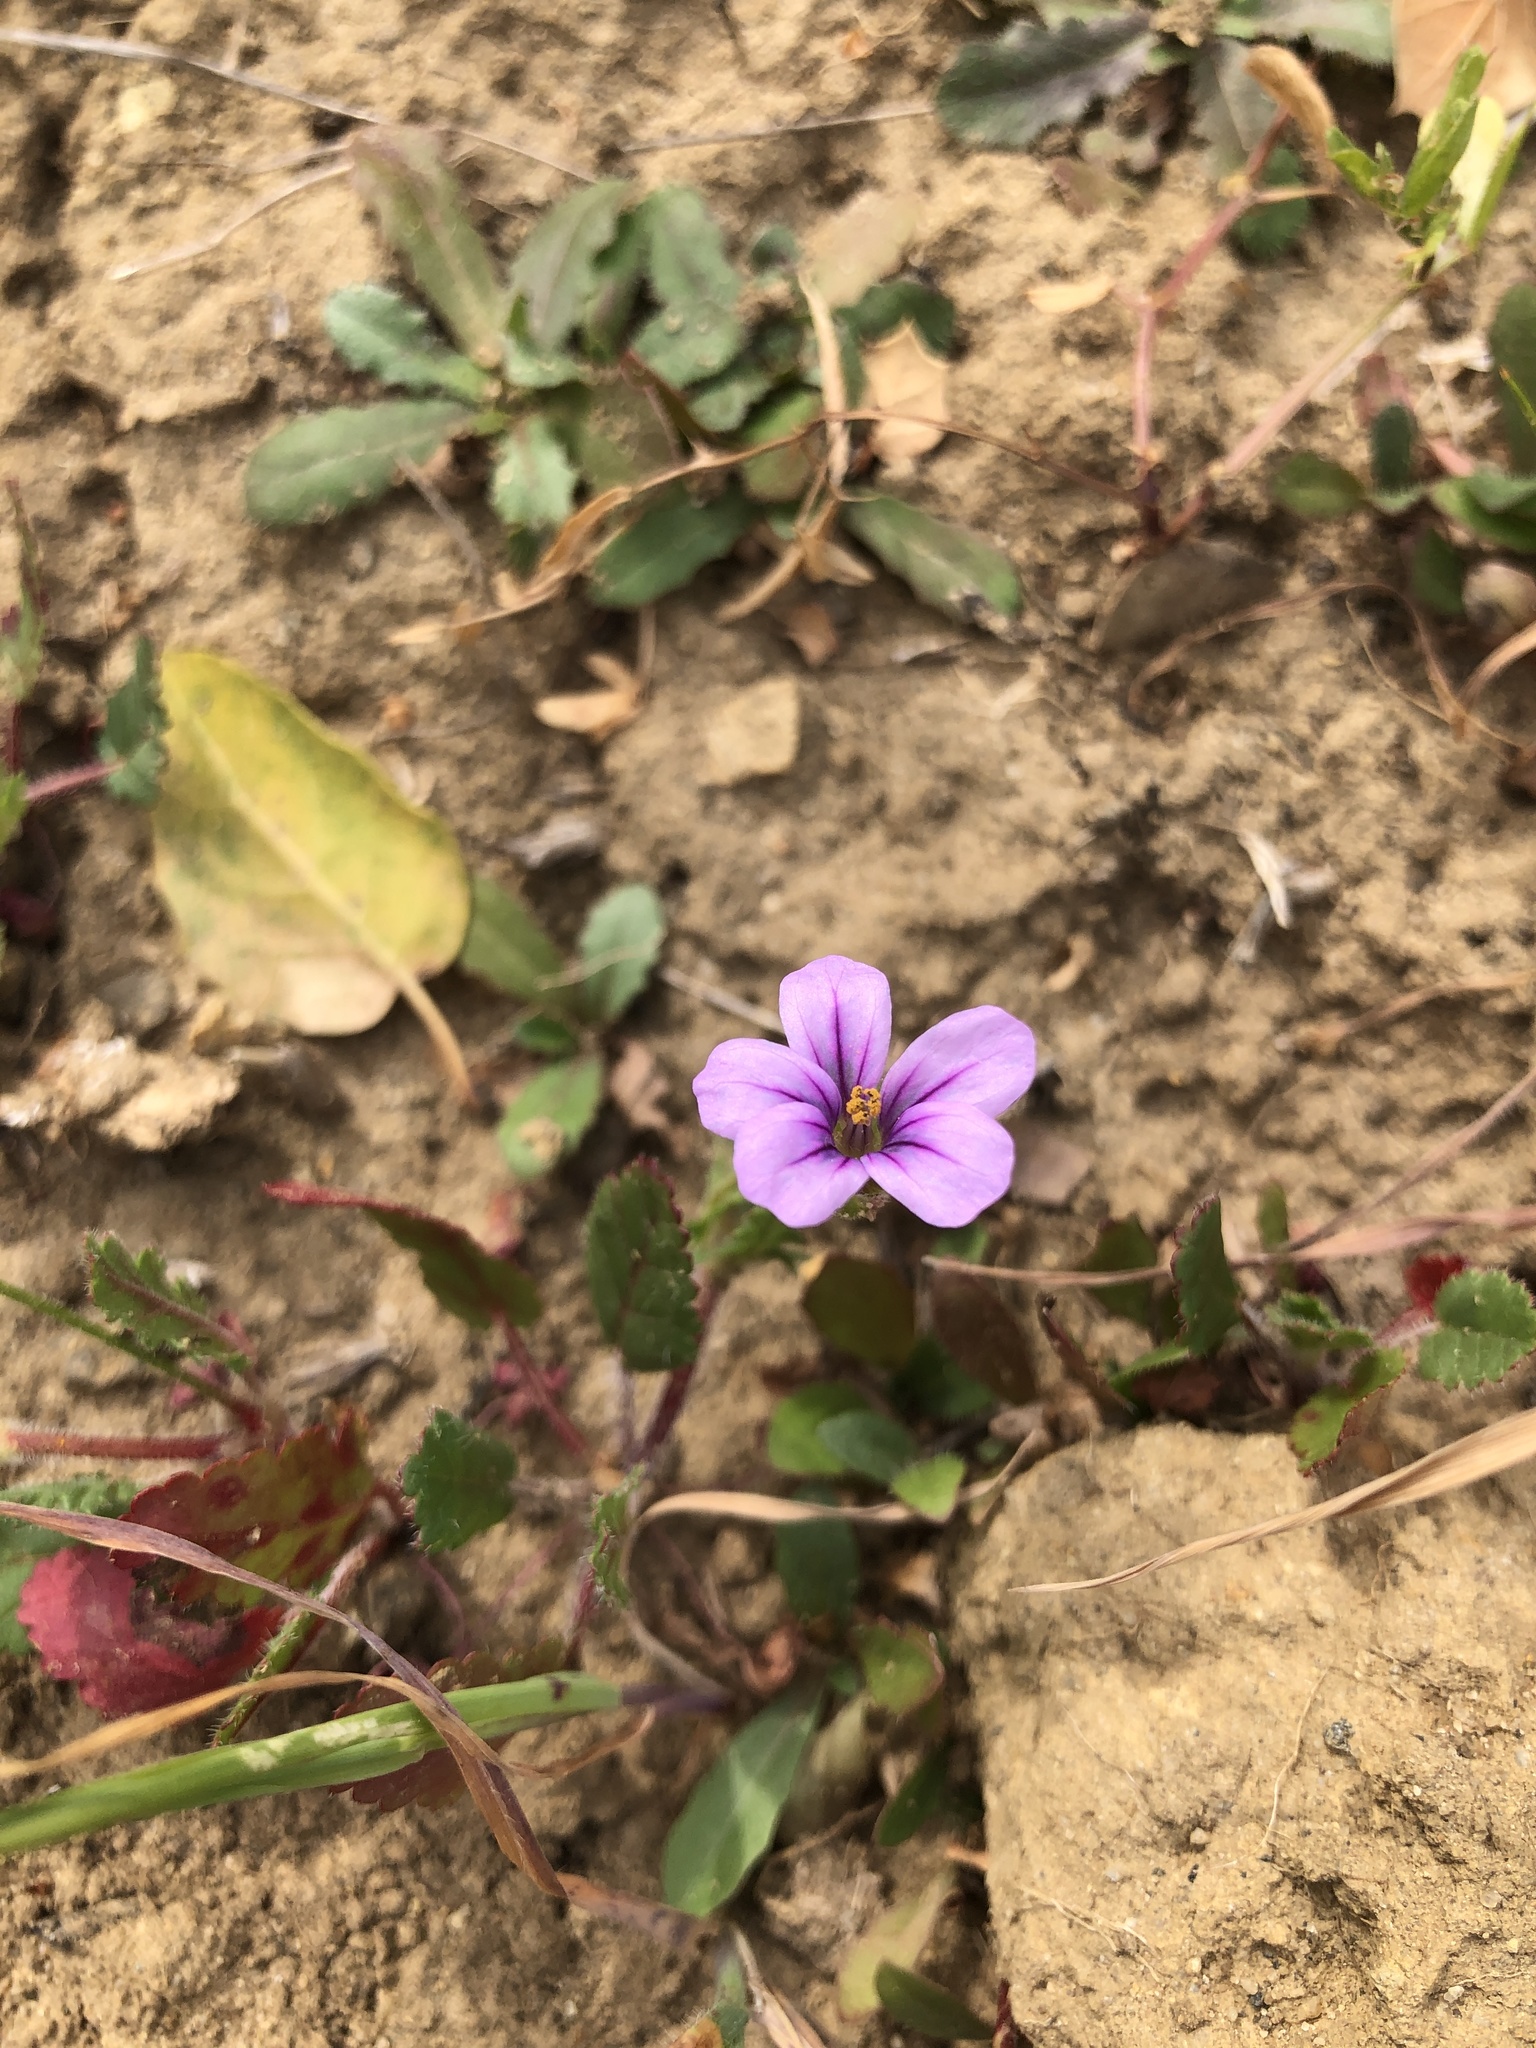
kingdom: Plantae
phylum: Tracheophyta
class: Magnoliopsida
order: Geraniales
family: Geraniaceae
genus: Erodium
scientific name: Erodium botrys
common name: Mediterranean stork's-bill
